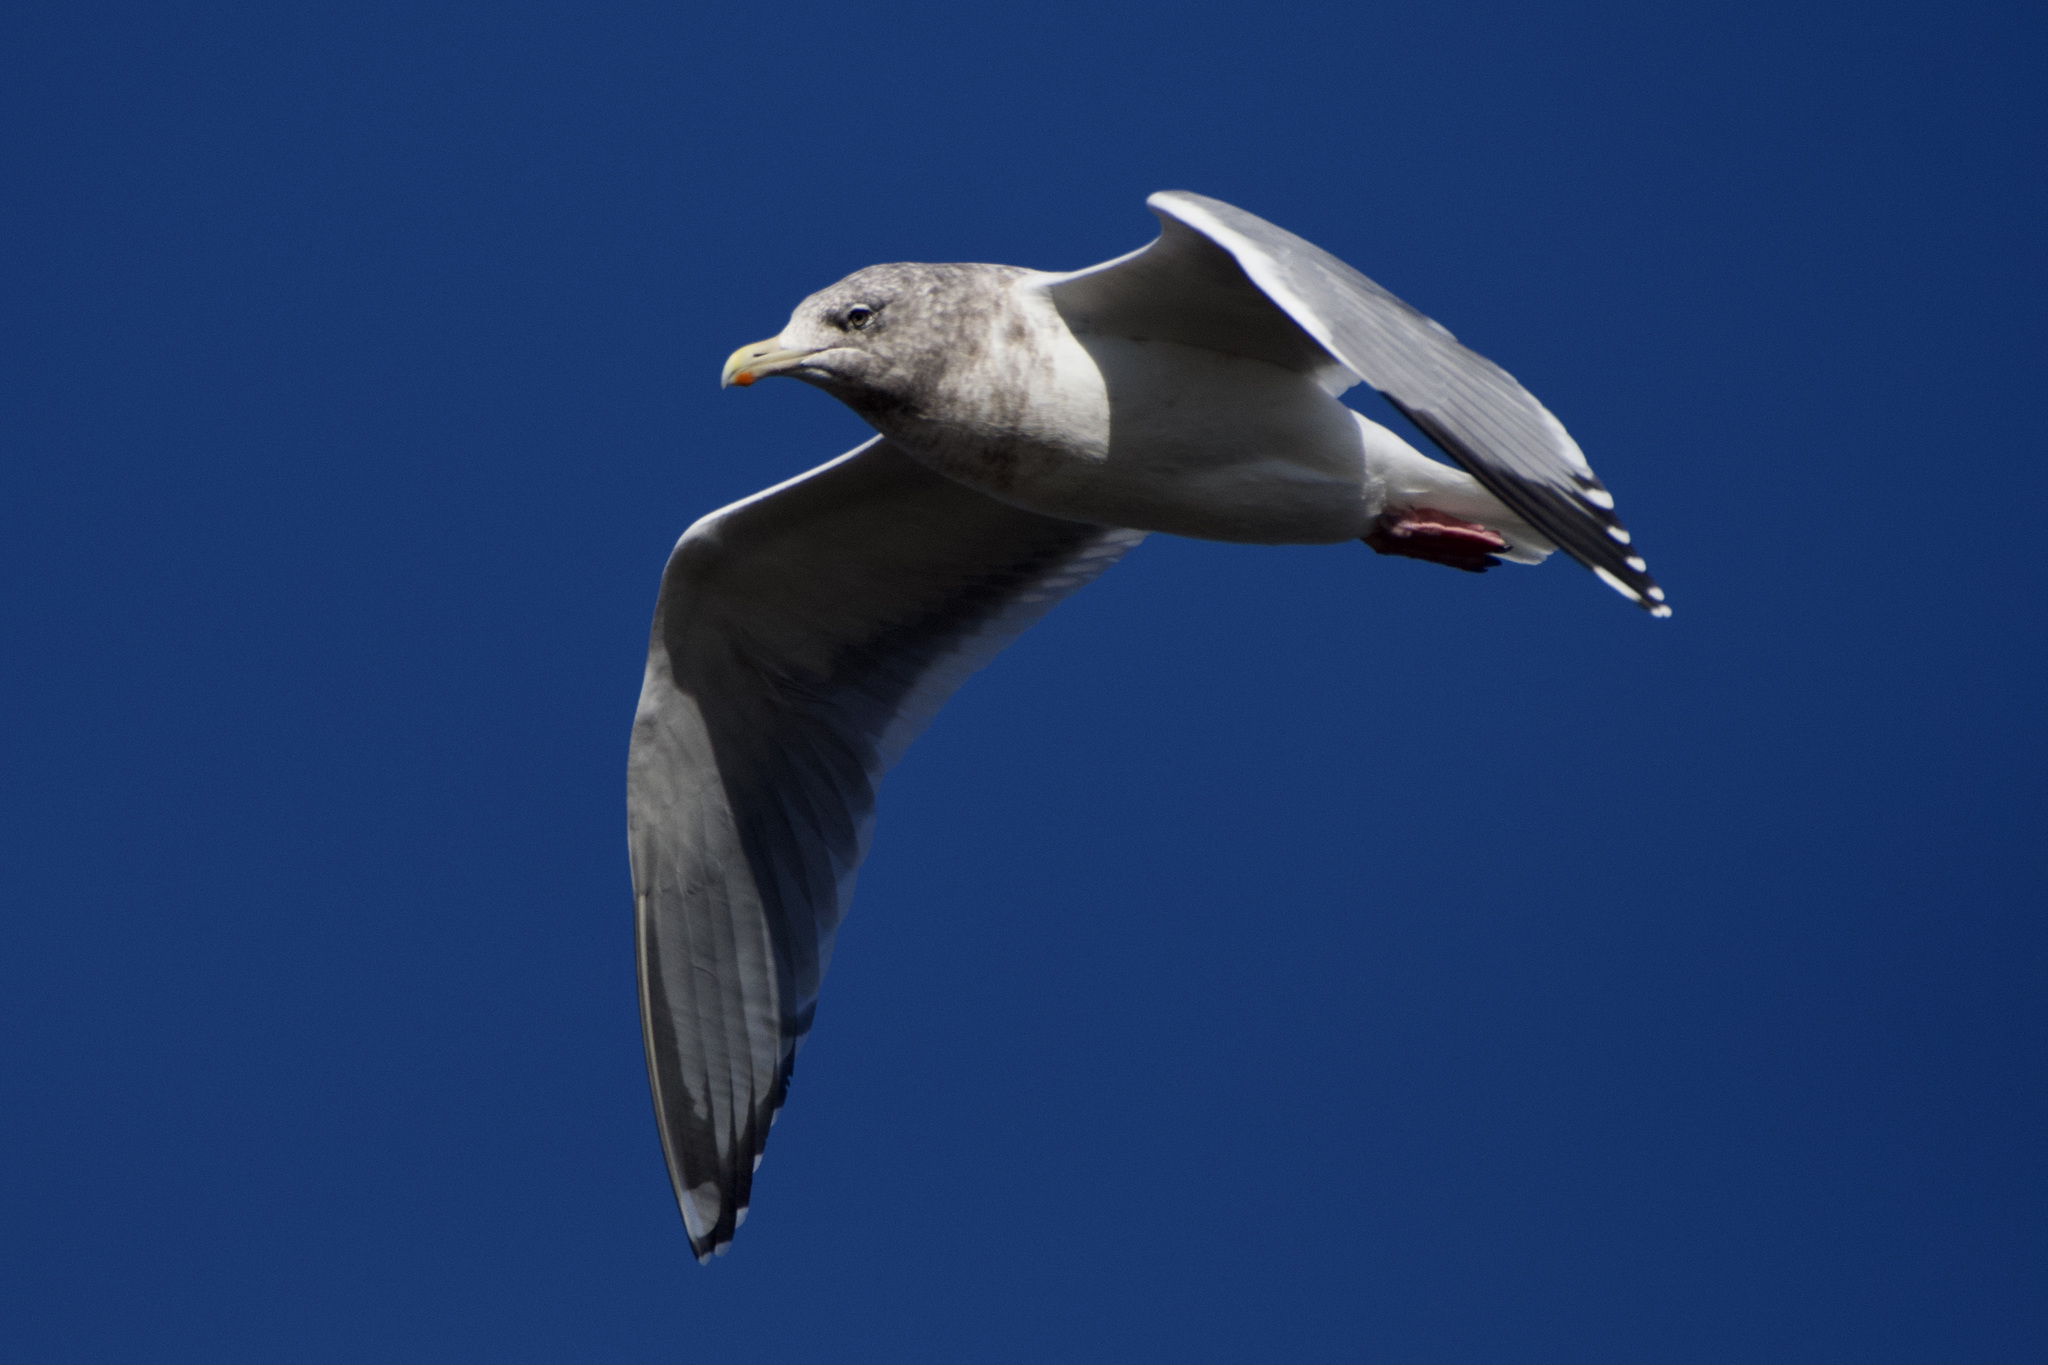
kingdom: Animalia
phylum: Chordata
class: Aves
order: Charadriiformes
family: Laridae
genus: Larus
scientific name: Larus smithsonianus
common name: American herring gull
